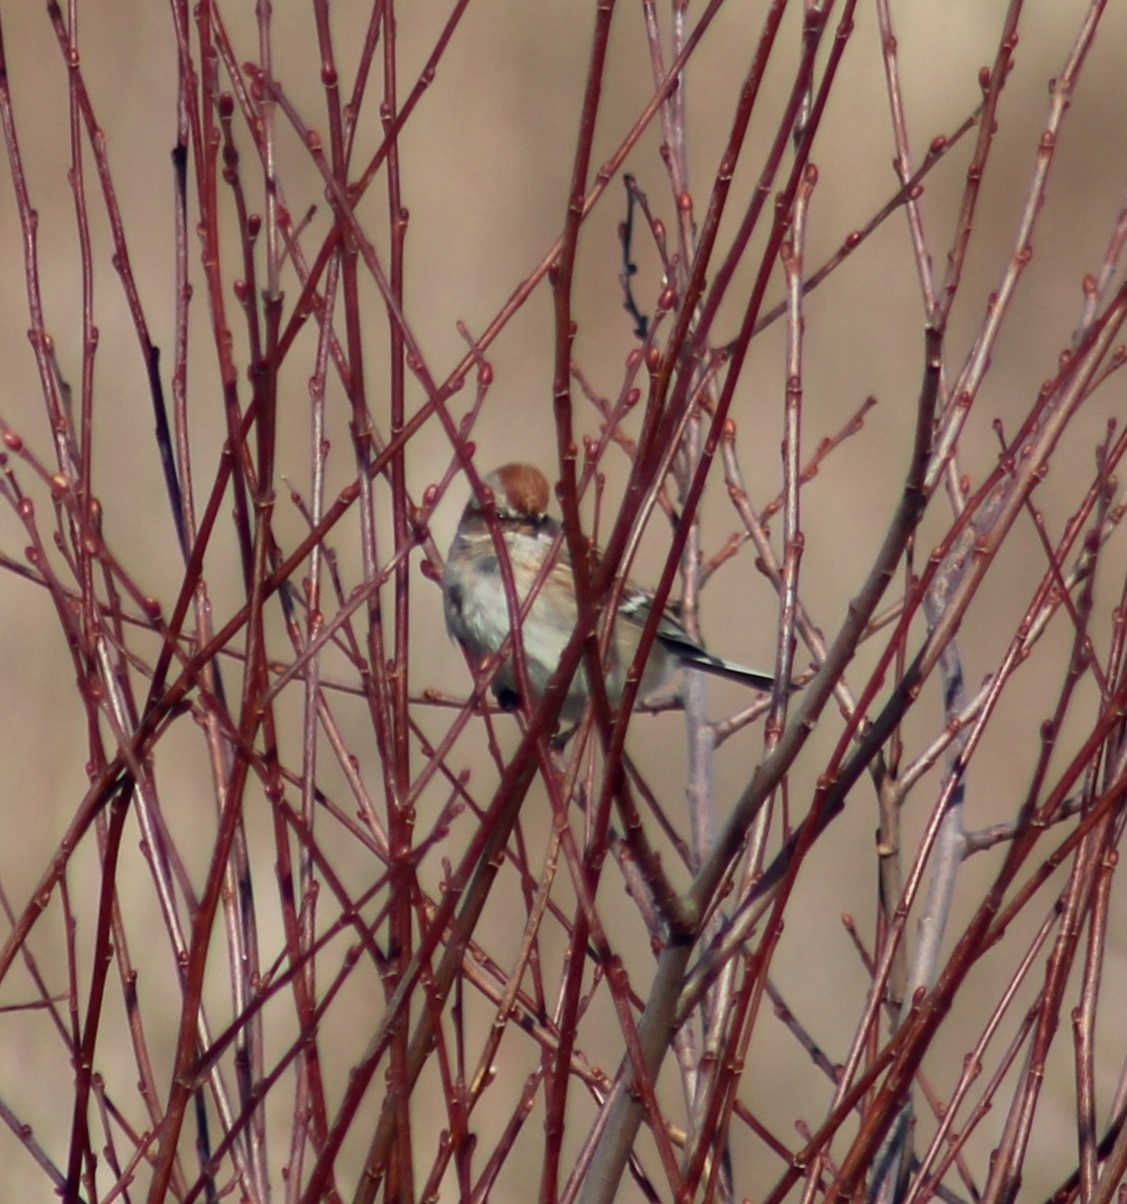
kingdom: Animalia
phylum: Chordata
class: Aves
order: Passeriformes
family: Passerellidae
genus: Spizelloides
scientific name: Spizelloides arborea
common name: American tree sparrow
